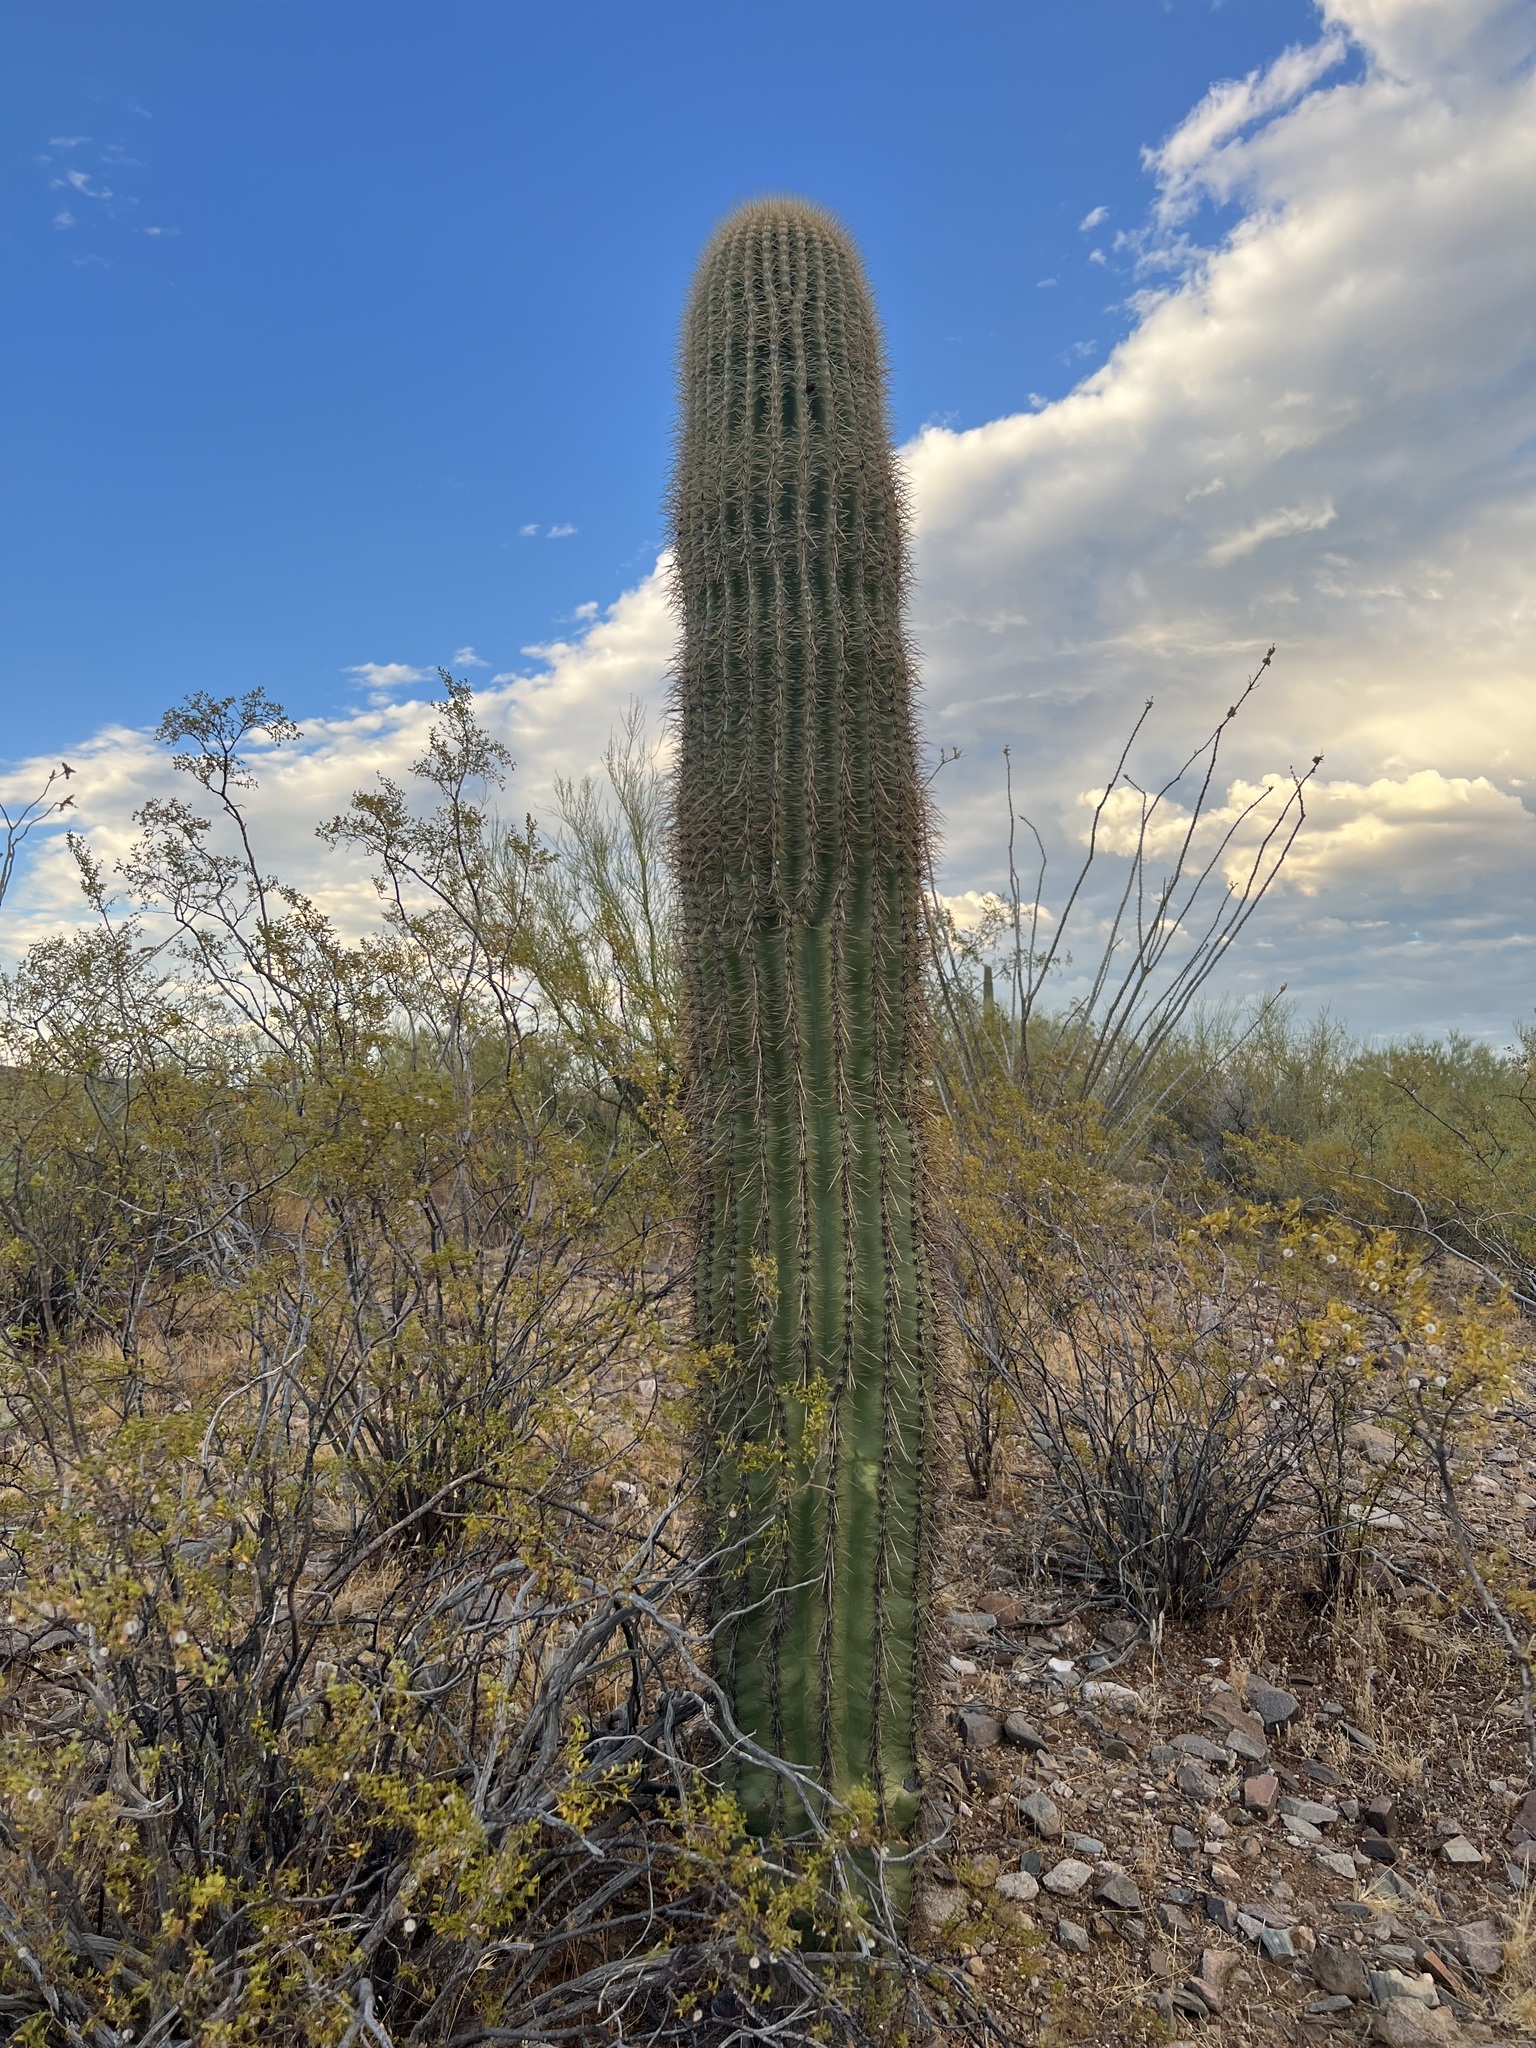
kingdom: Plantae
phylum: Tracheophyta
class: Magnoliopsida
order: Caryophyllales
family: Cactaceae
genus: Carnegiea
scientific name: Carnegiea gigantea
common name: Saguaro
